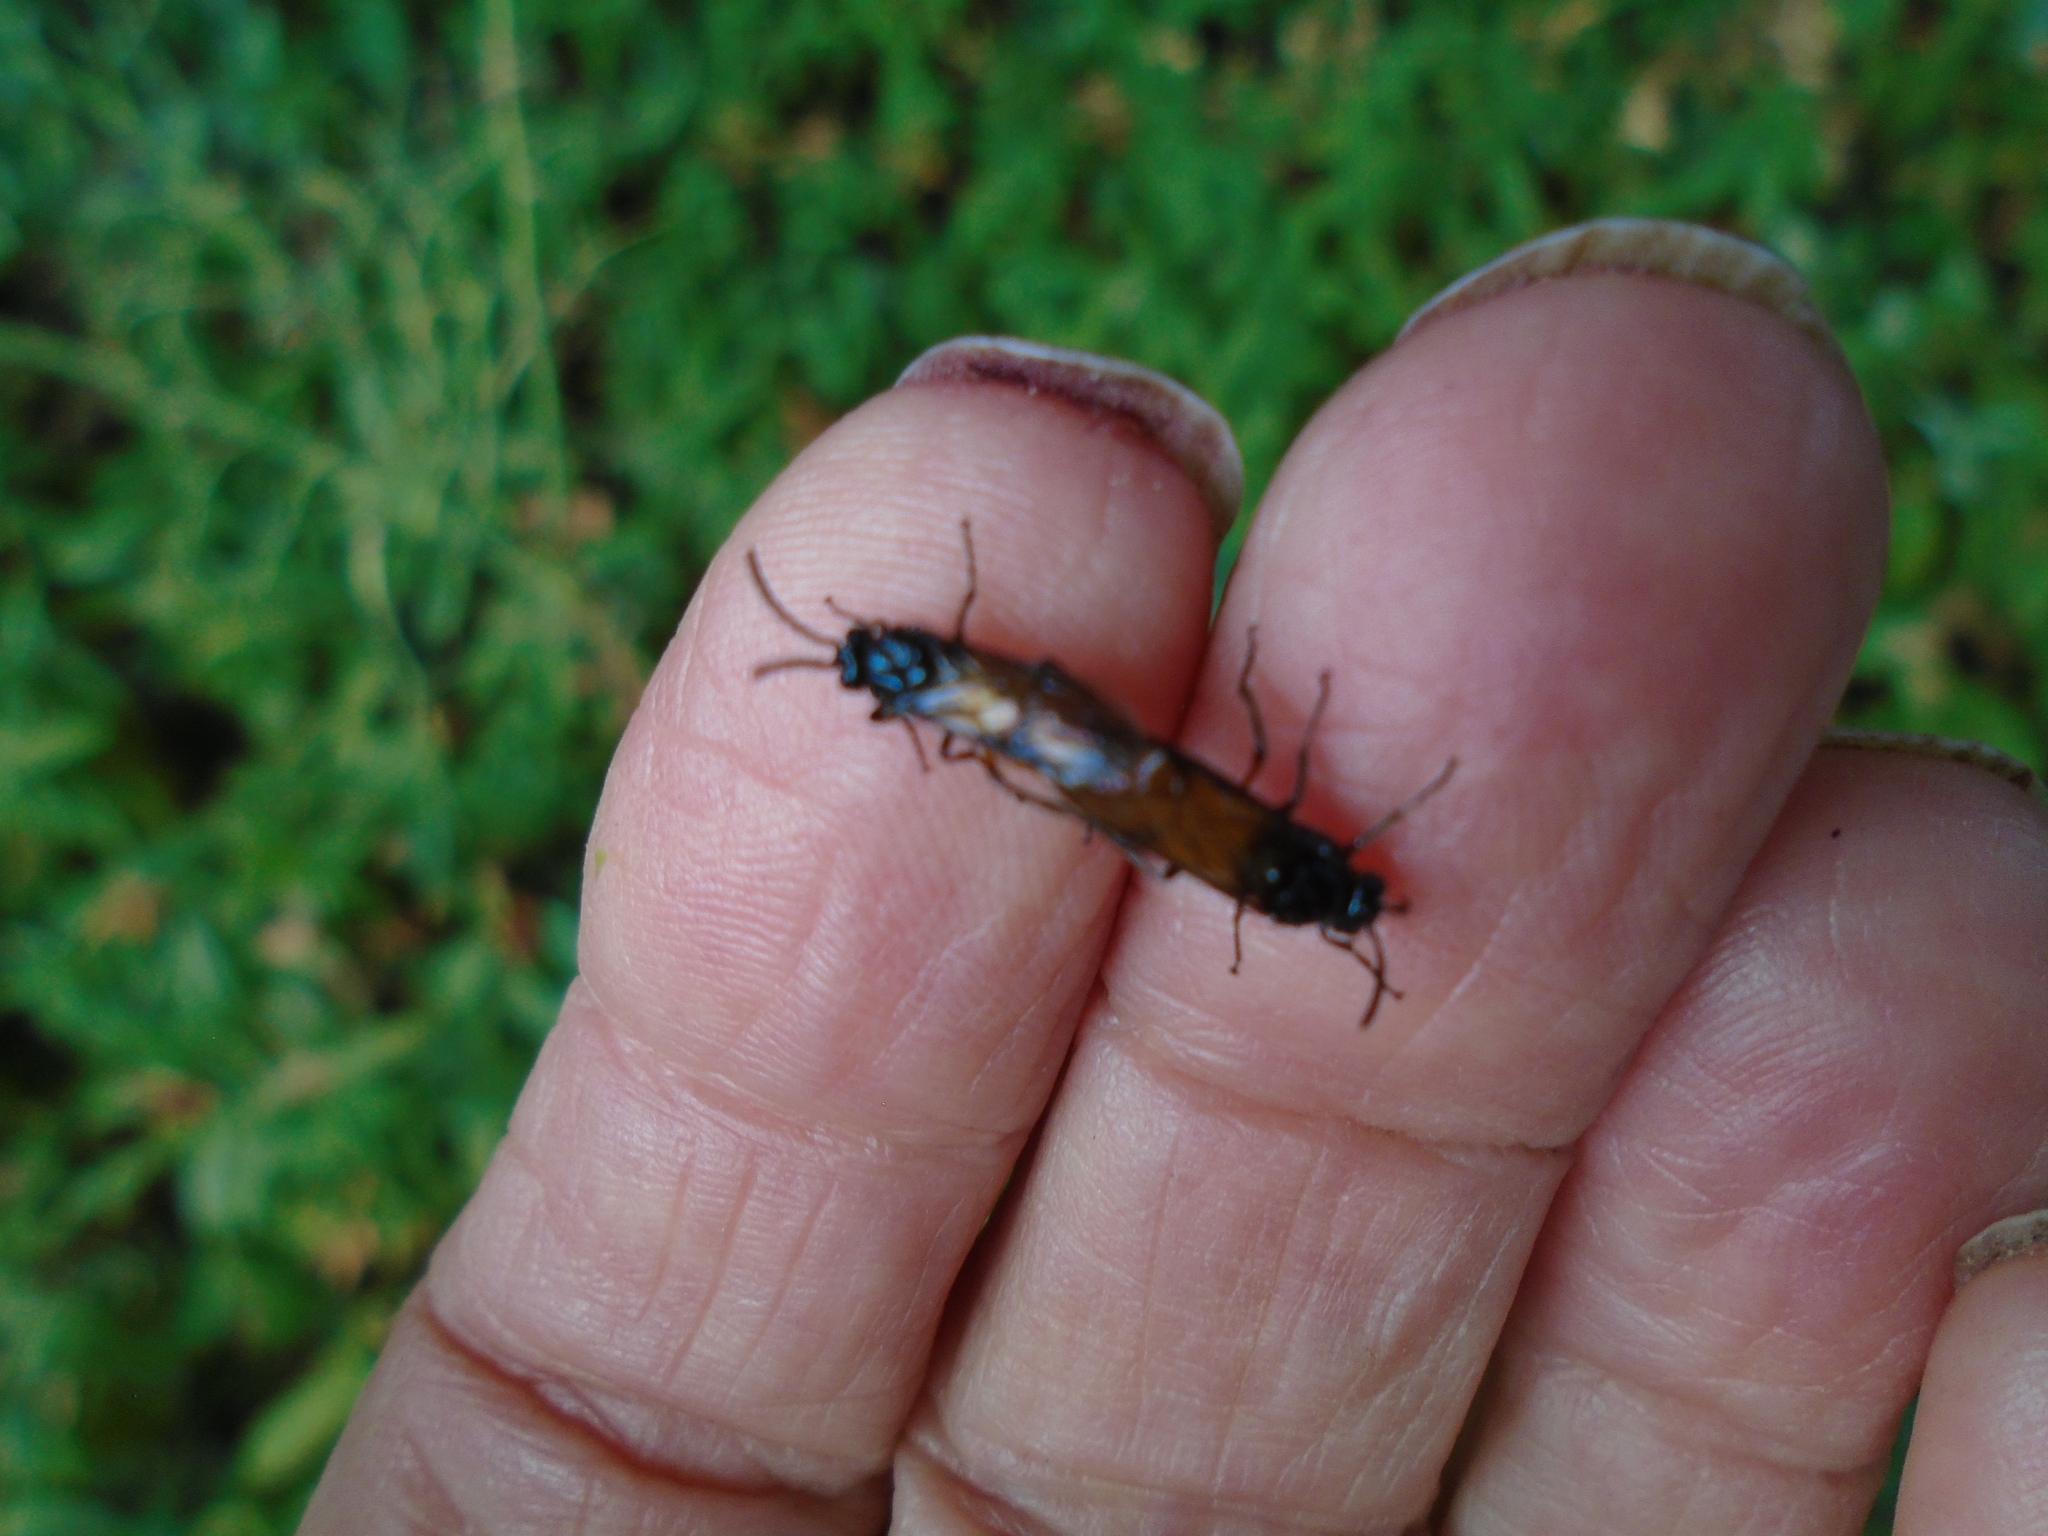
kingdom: Animalia
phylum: Arthropoda
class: Insecta
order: Hymenoptera
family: Argidae
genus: Arge
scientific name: Arge pagana
